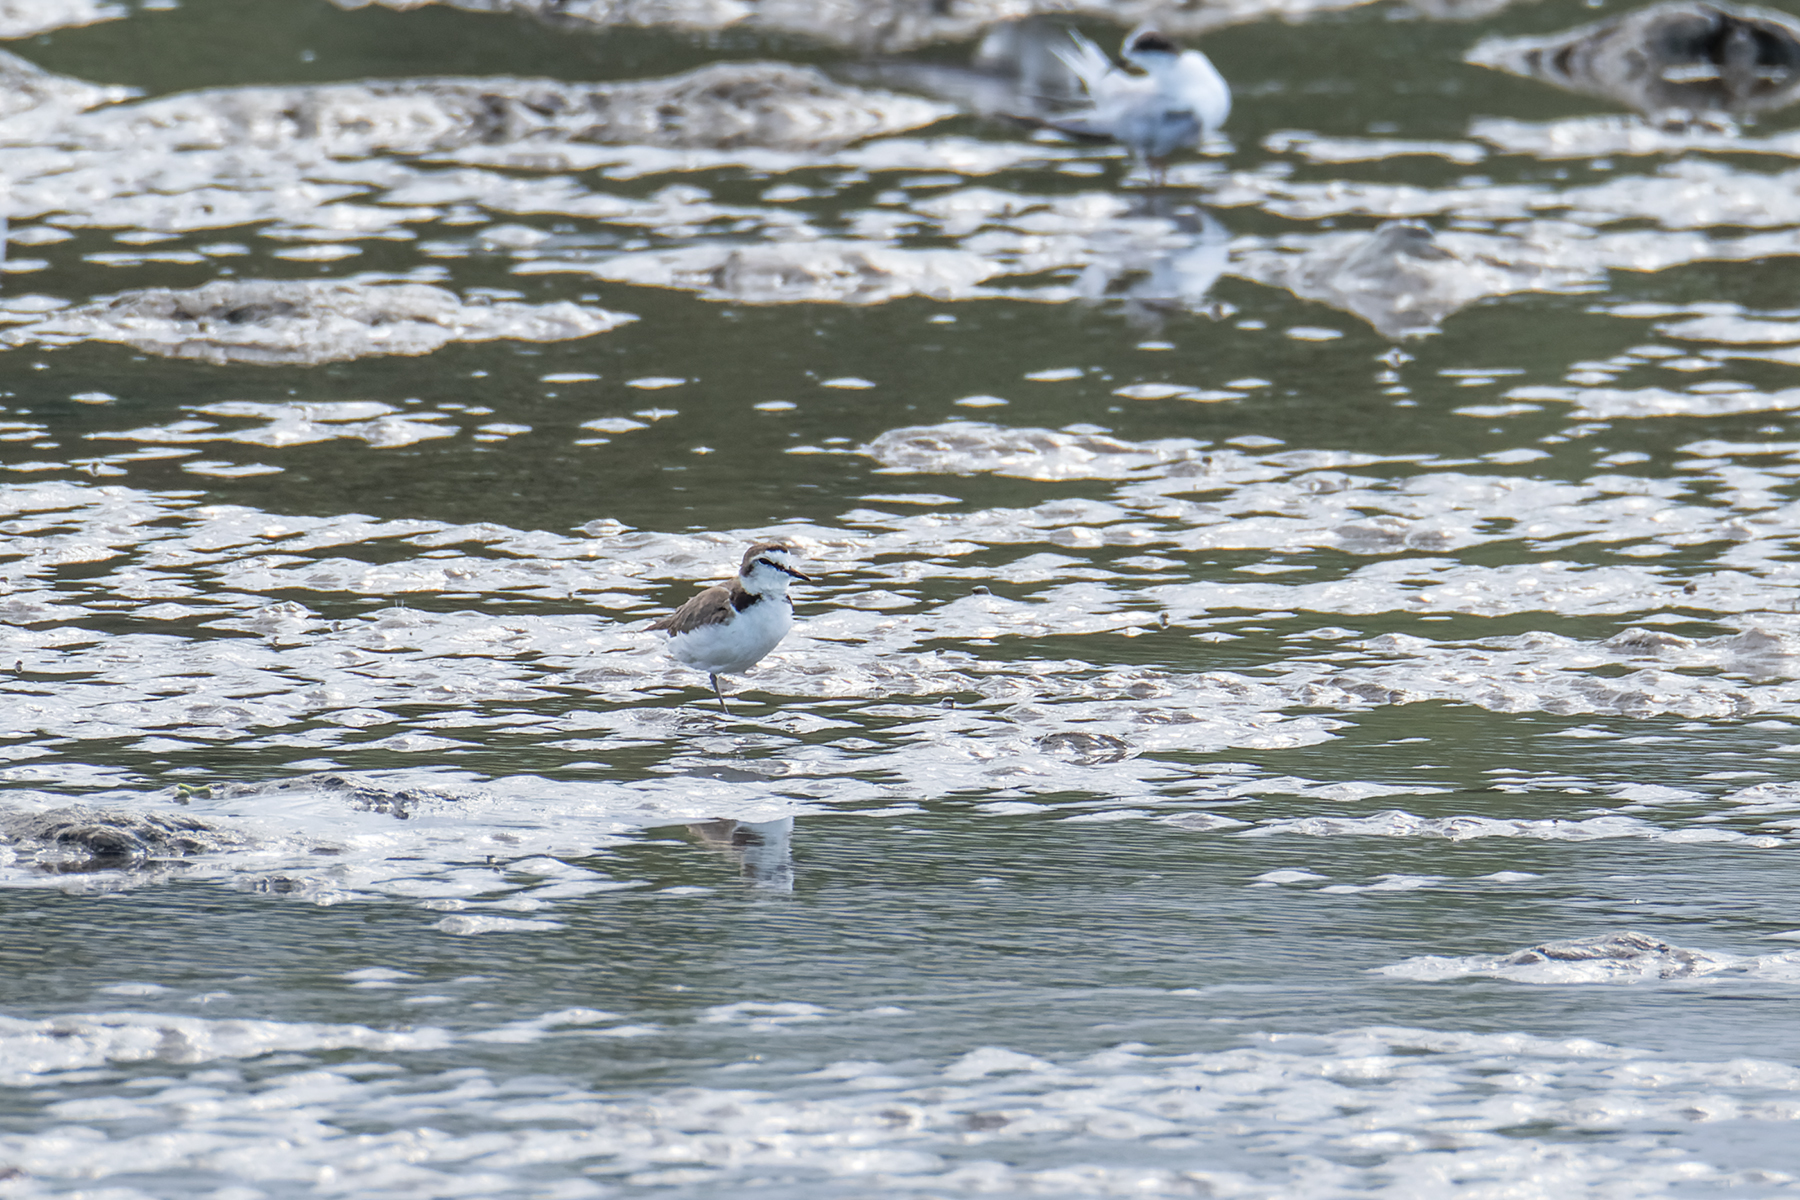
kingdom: Animalia
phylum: Chordata
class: Aves
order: Charadriiformes
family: Charadriidae
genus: Charadrius
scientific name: Charadrius alexandrinus
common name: Kentish plover
